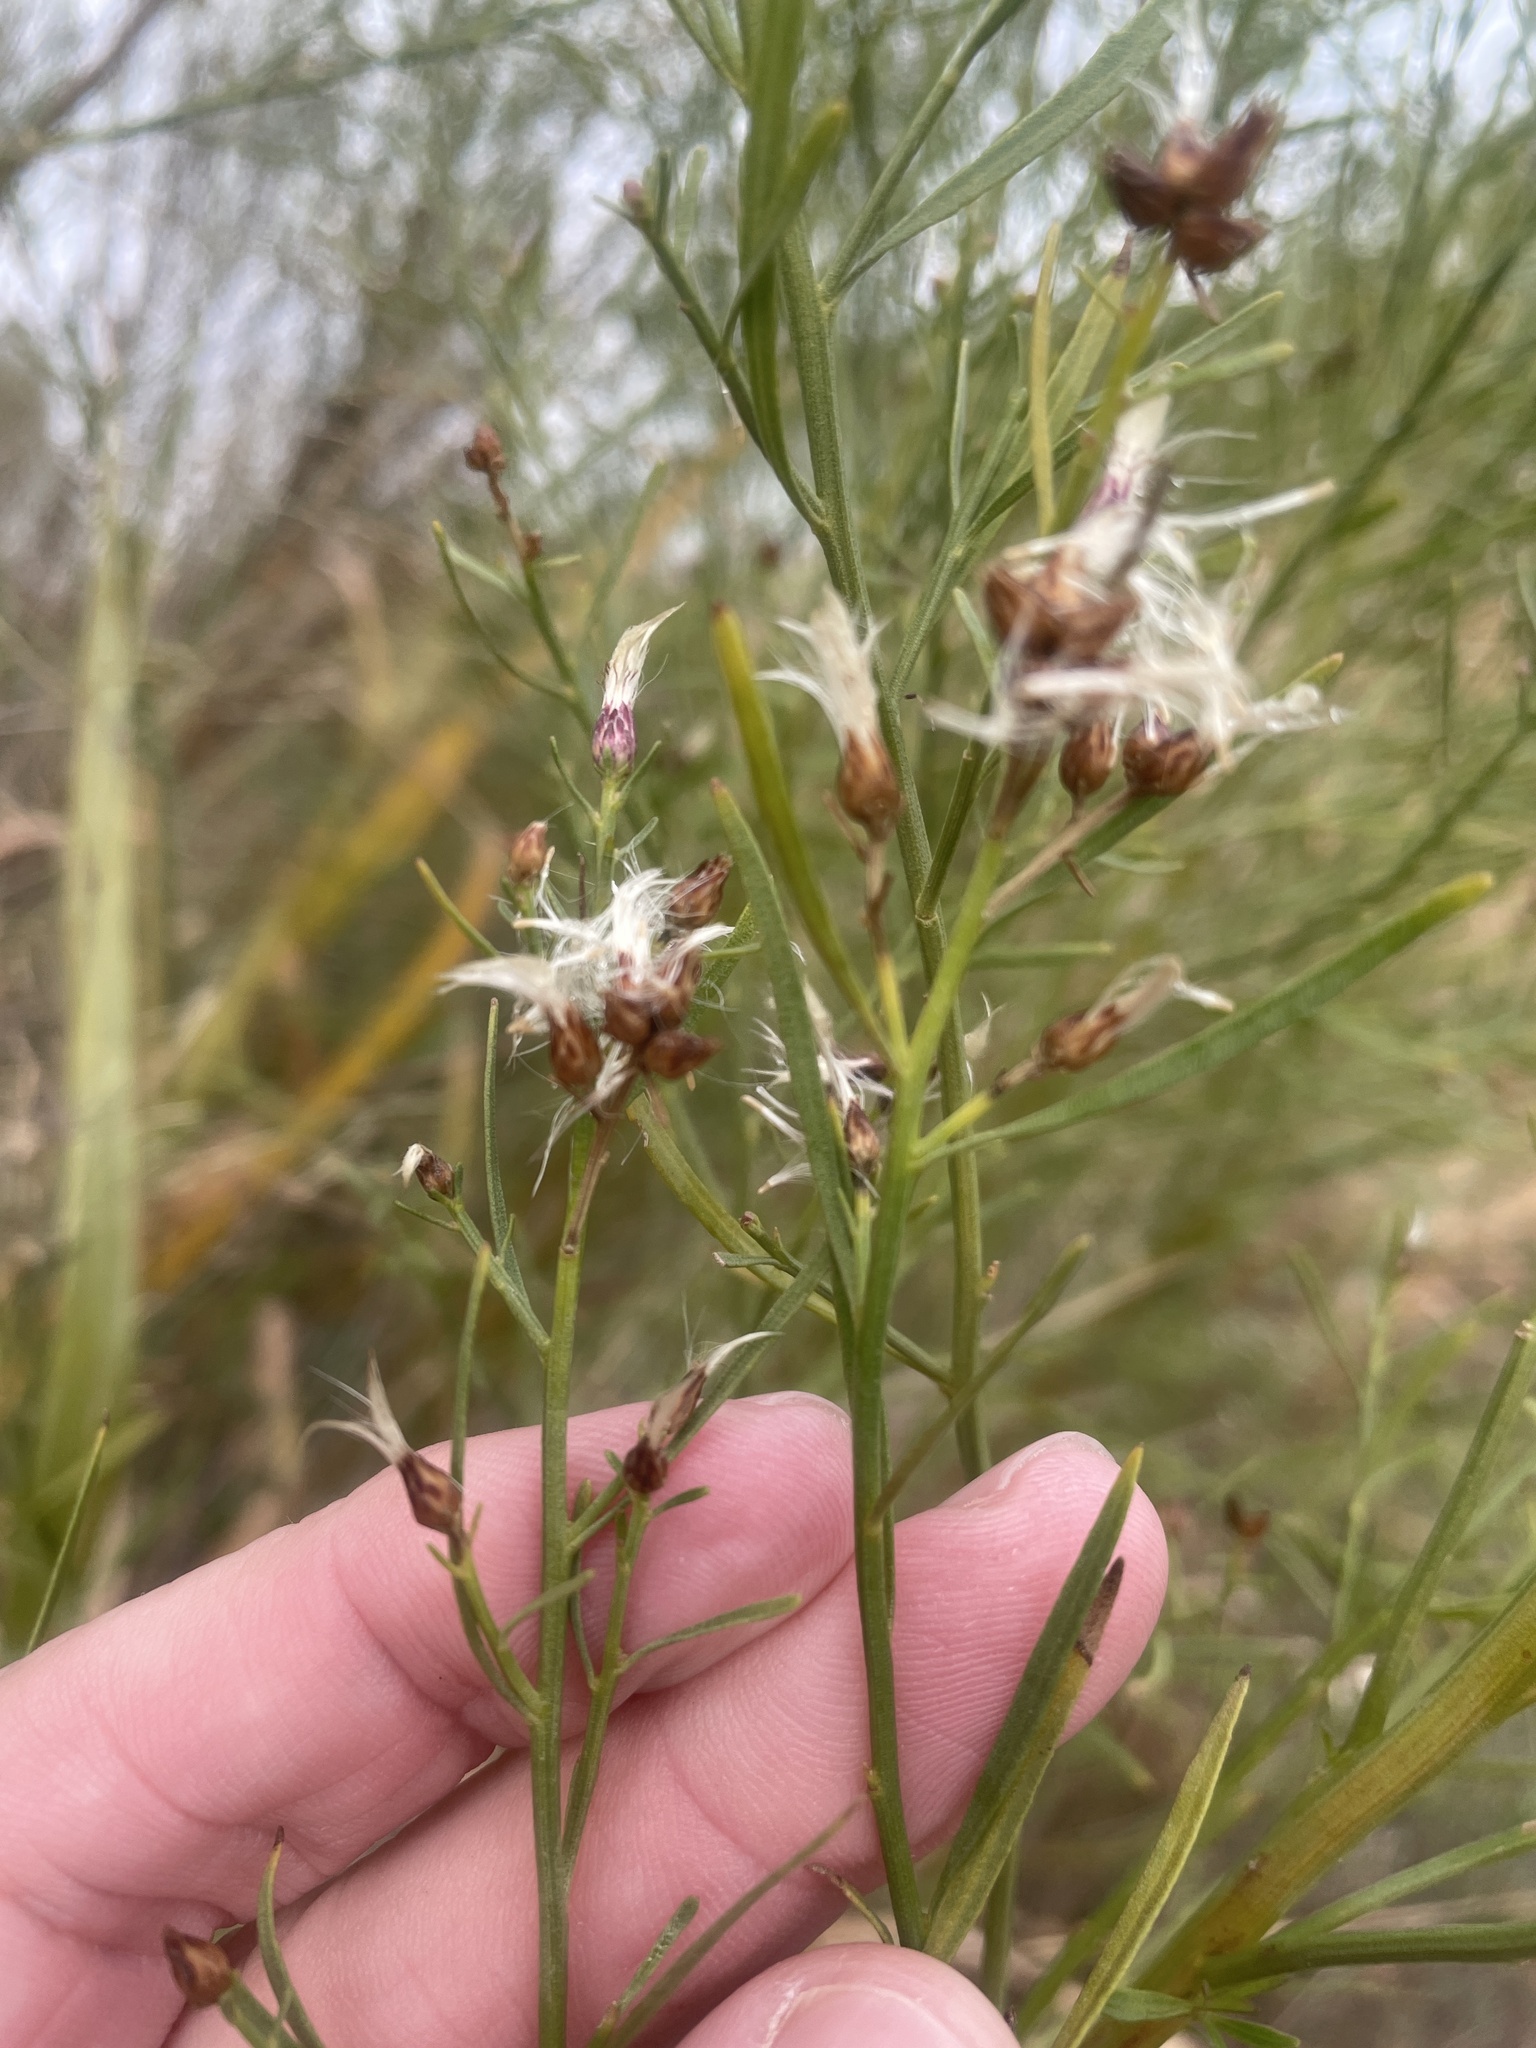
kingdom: Plantae
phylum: Tracheophyta
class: Magnoliopsida
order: Asterales
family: Asteraceae
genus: Baccharis
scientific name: Baccharis neglecta
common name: Roosevelt-weed
